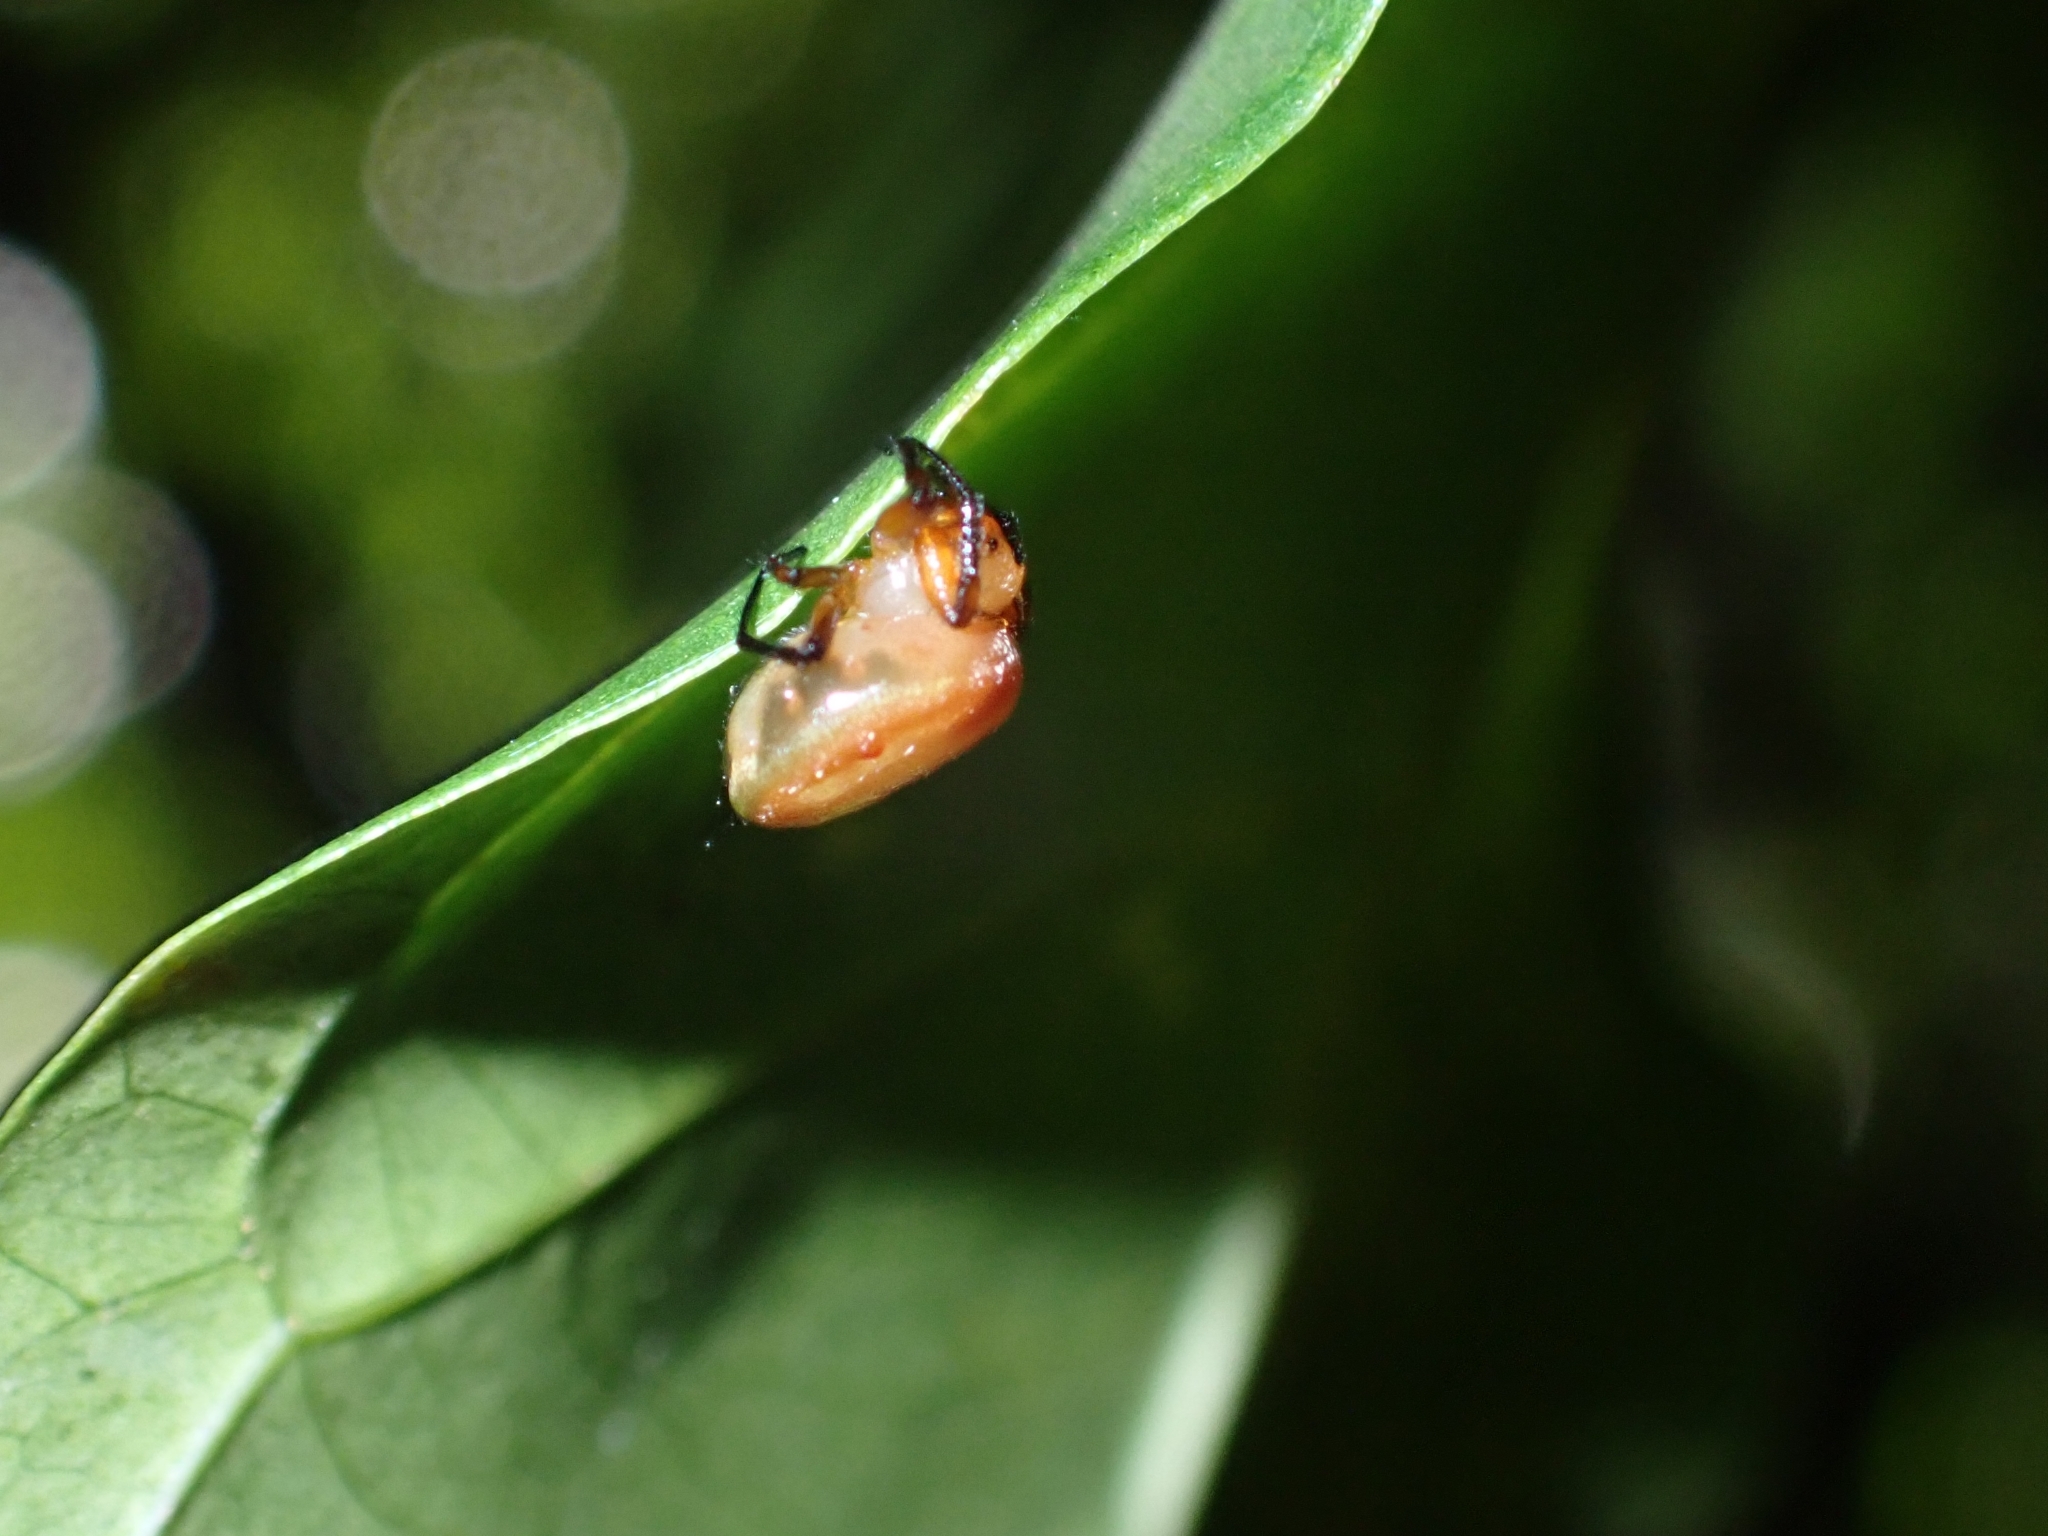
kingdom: Animalia
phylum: Arthropoda
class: Arachnida
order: Araneae
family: Araneidae
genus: Anepsion
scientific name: Anepsion depressum
